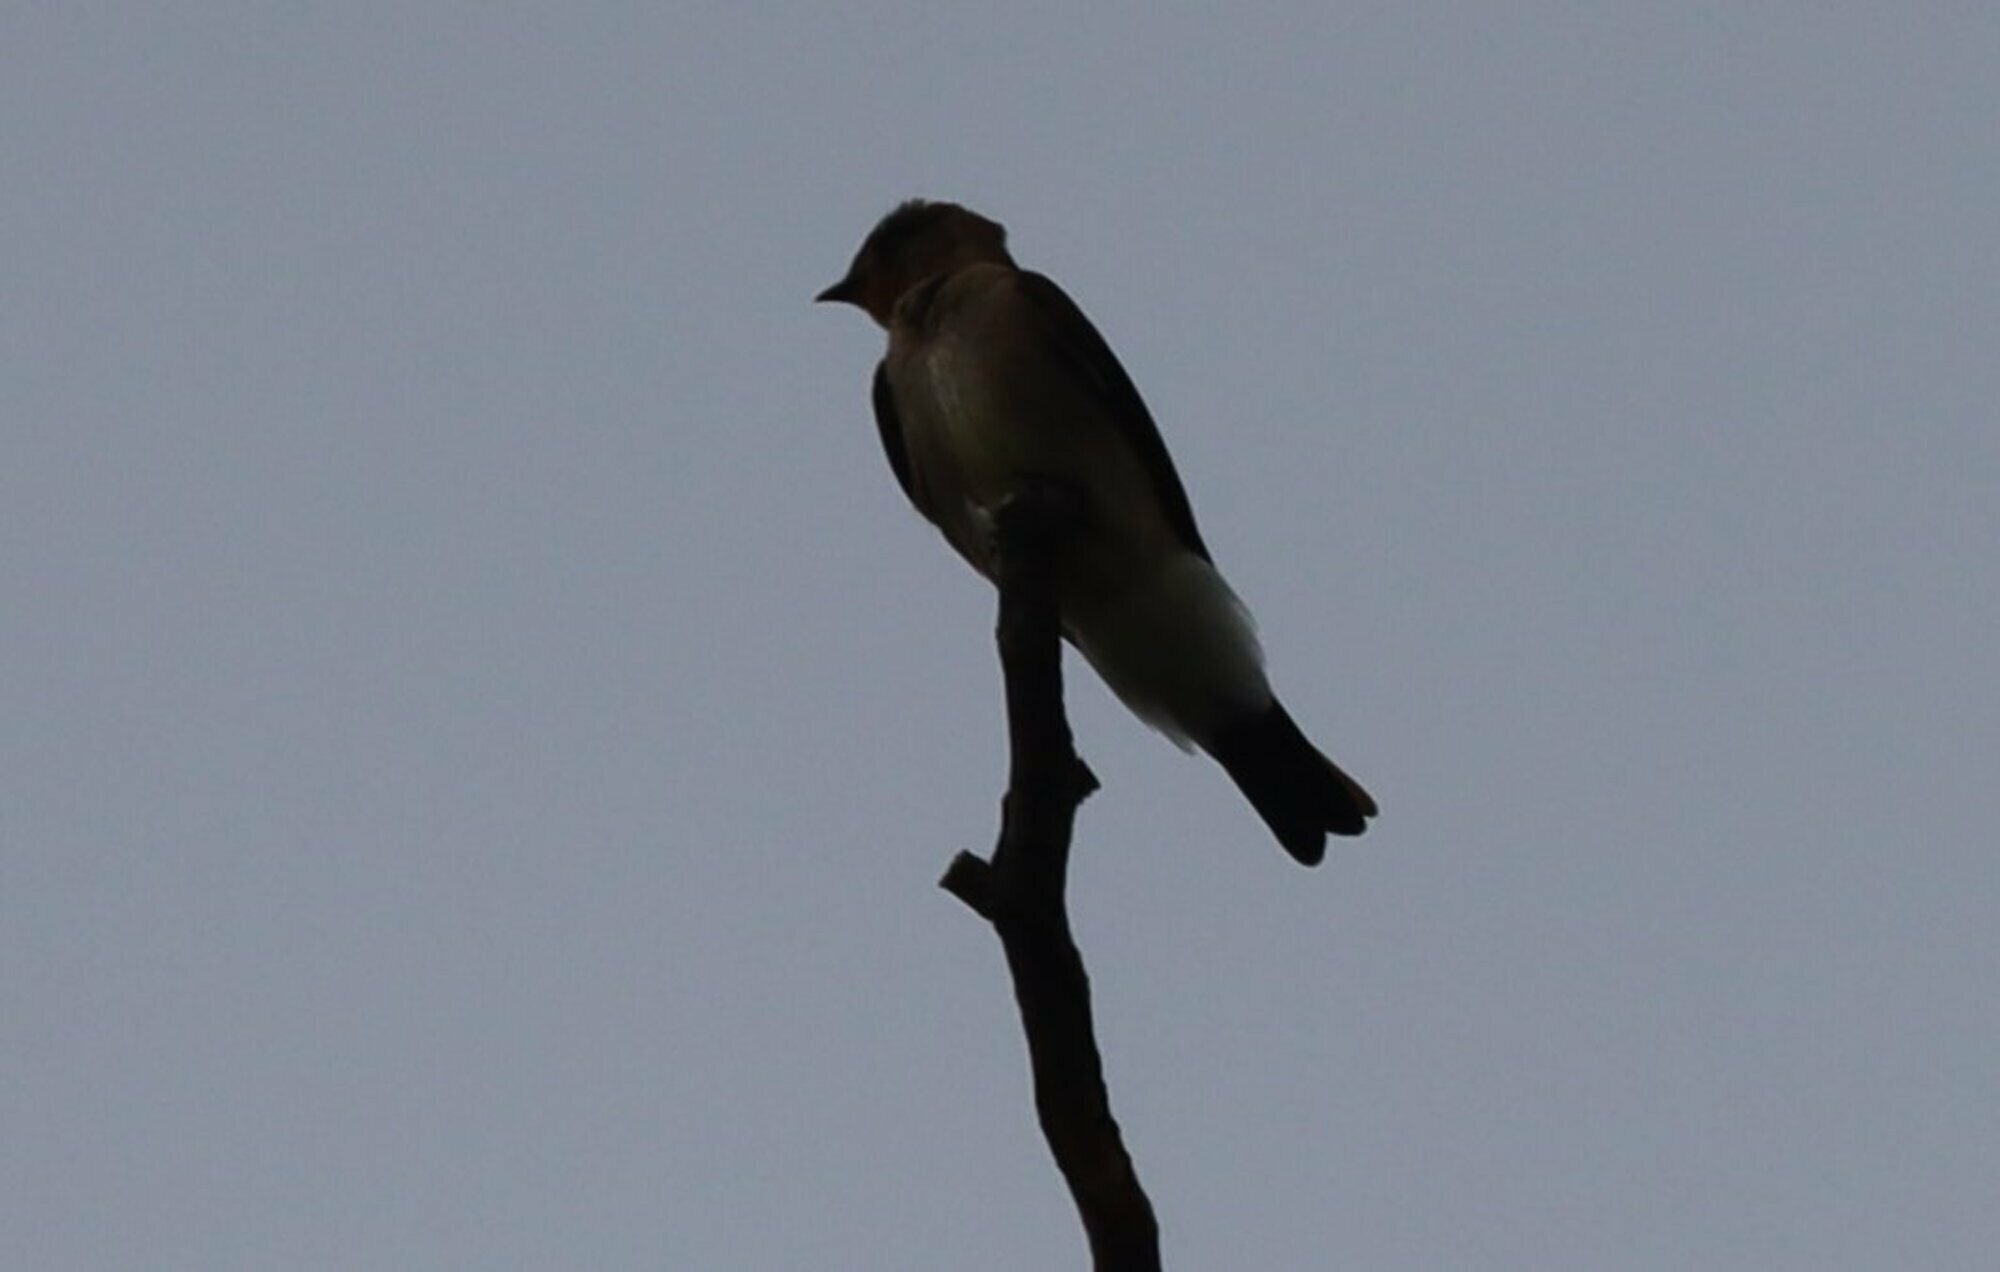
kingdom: Animalia
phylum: Chordata
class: Aves
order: Passeriformes
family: Hirundinidae
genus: Stelgidopteryx
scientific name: Stelgidopteryx ruficollis
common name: Southern rough-winged swallow
